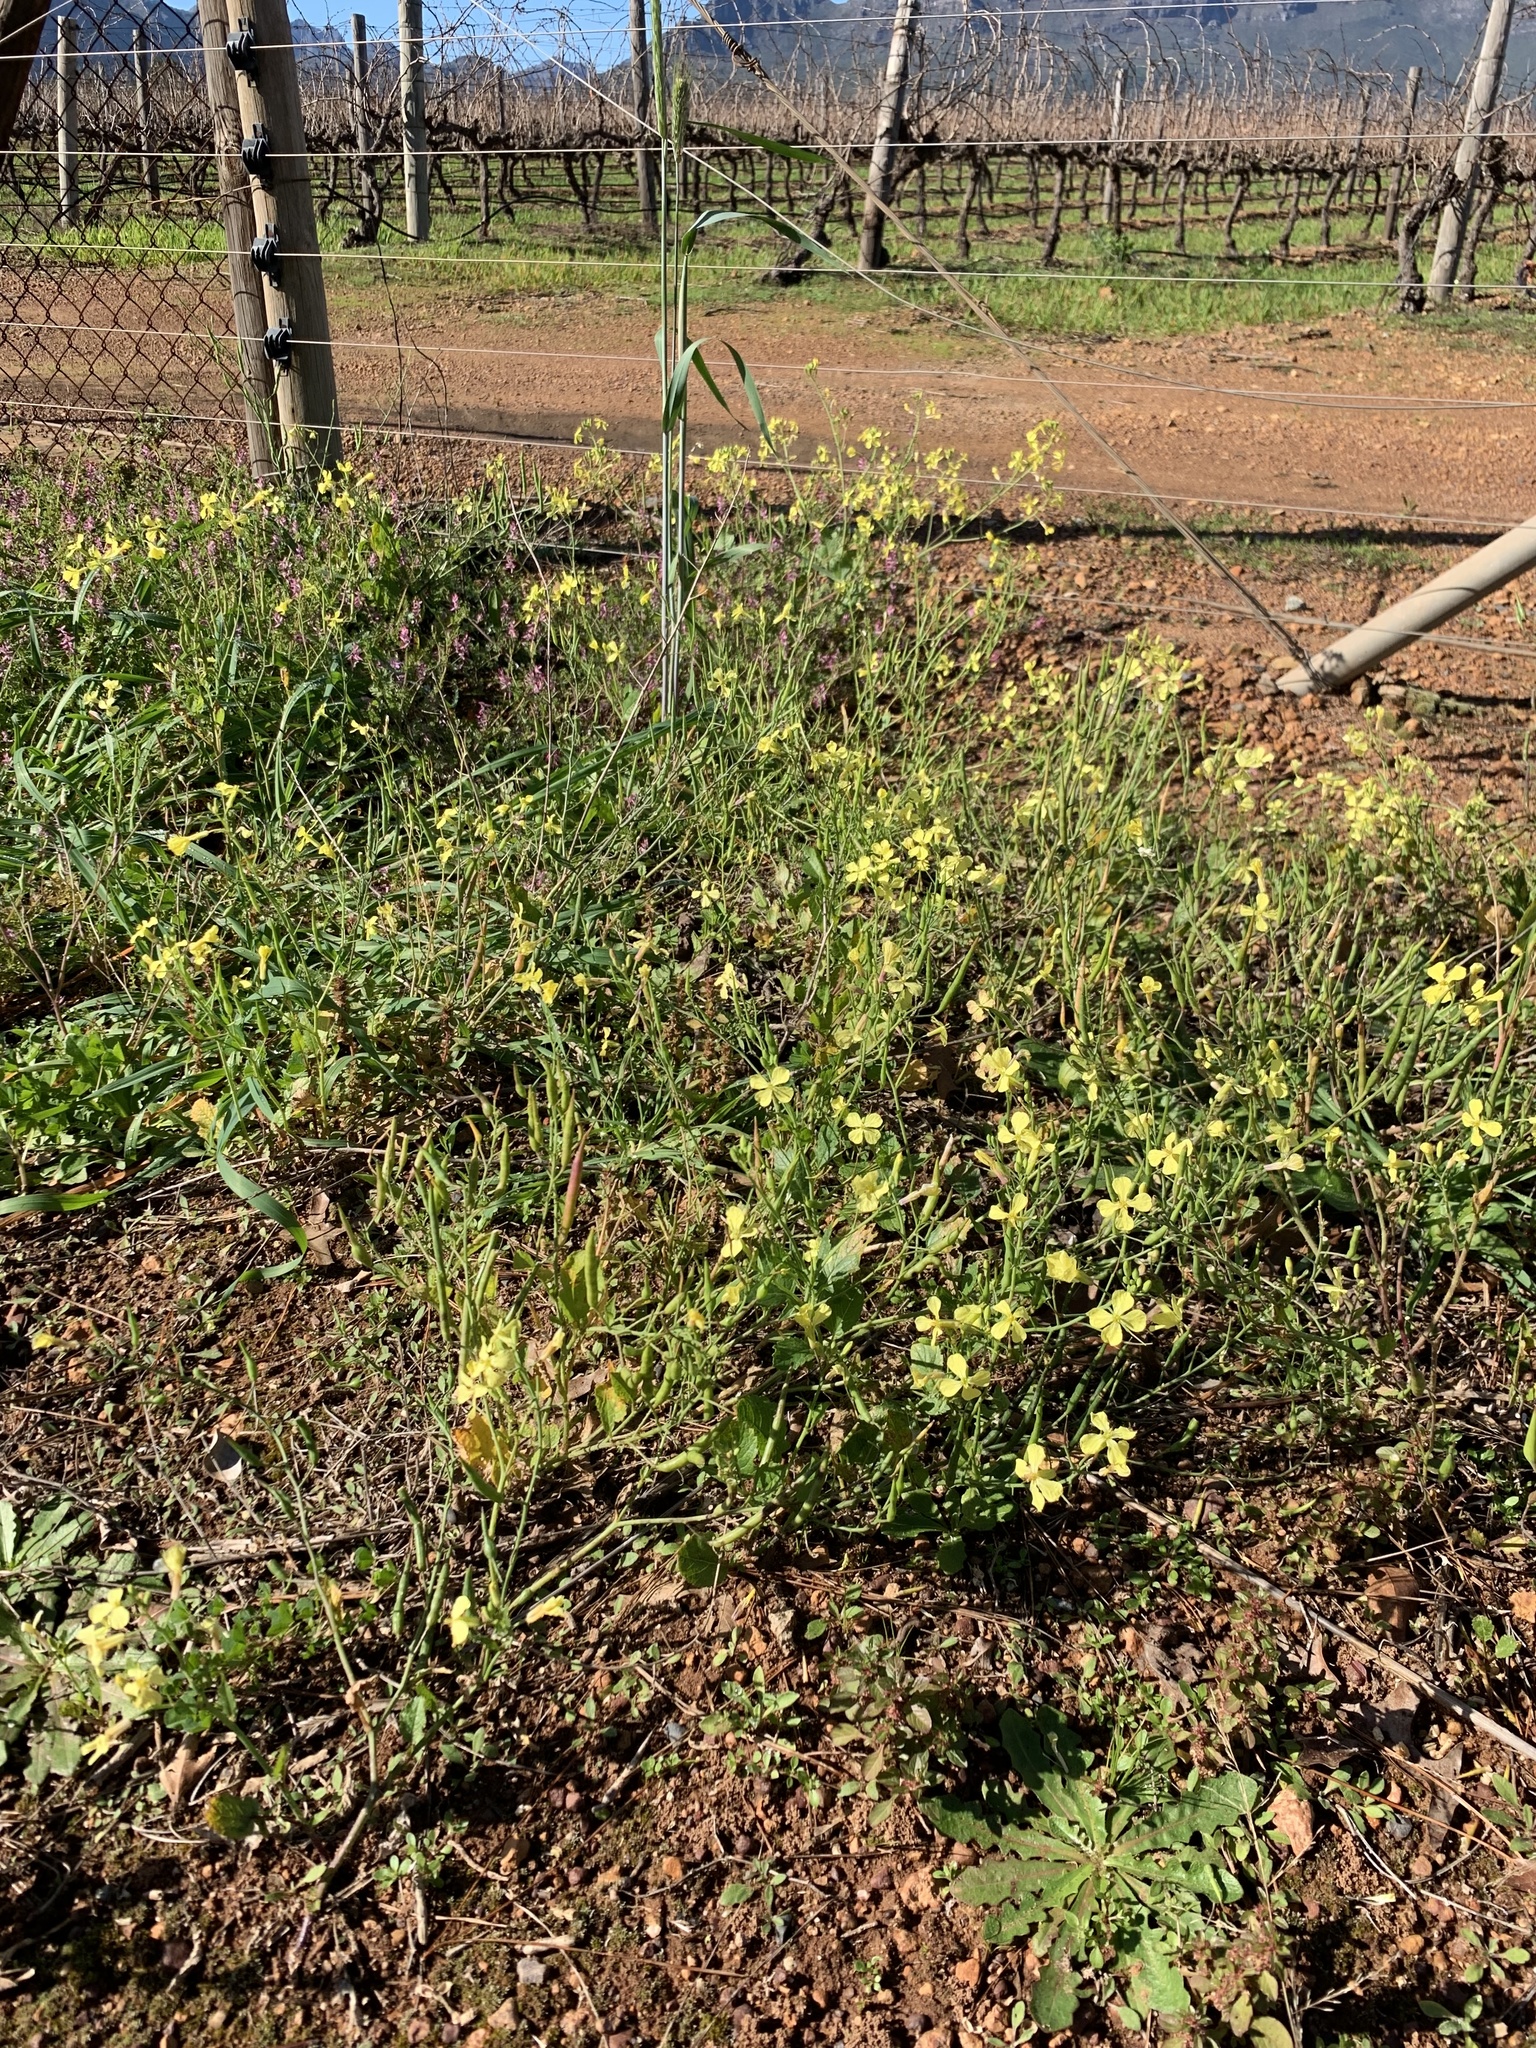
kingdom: Plantae
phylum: Tracheophyta
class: Magnoliopsida
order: Brassicales
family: Brassicaceae
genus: Raphanus
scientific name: Raphanus raphanistrum
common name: Wild radish
